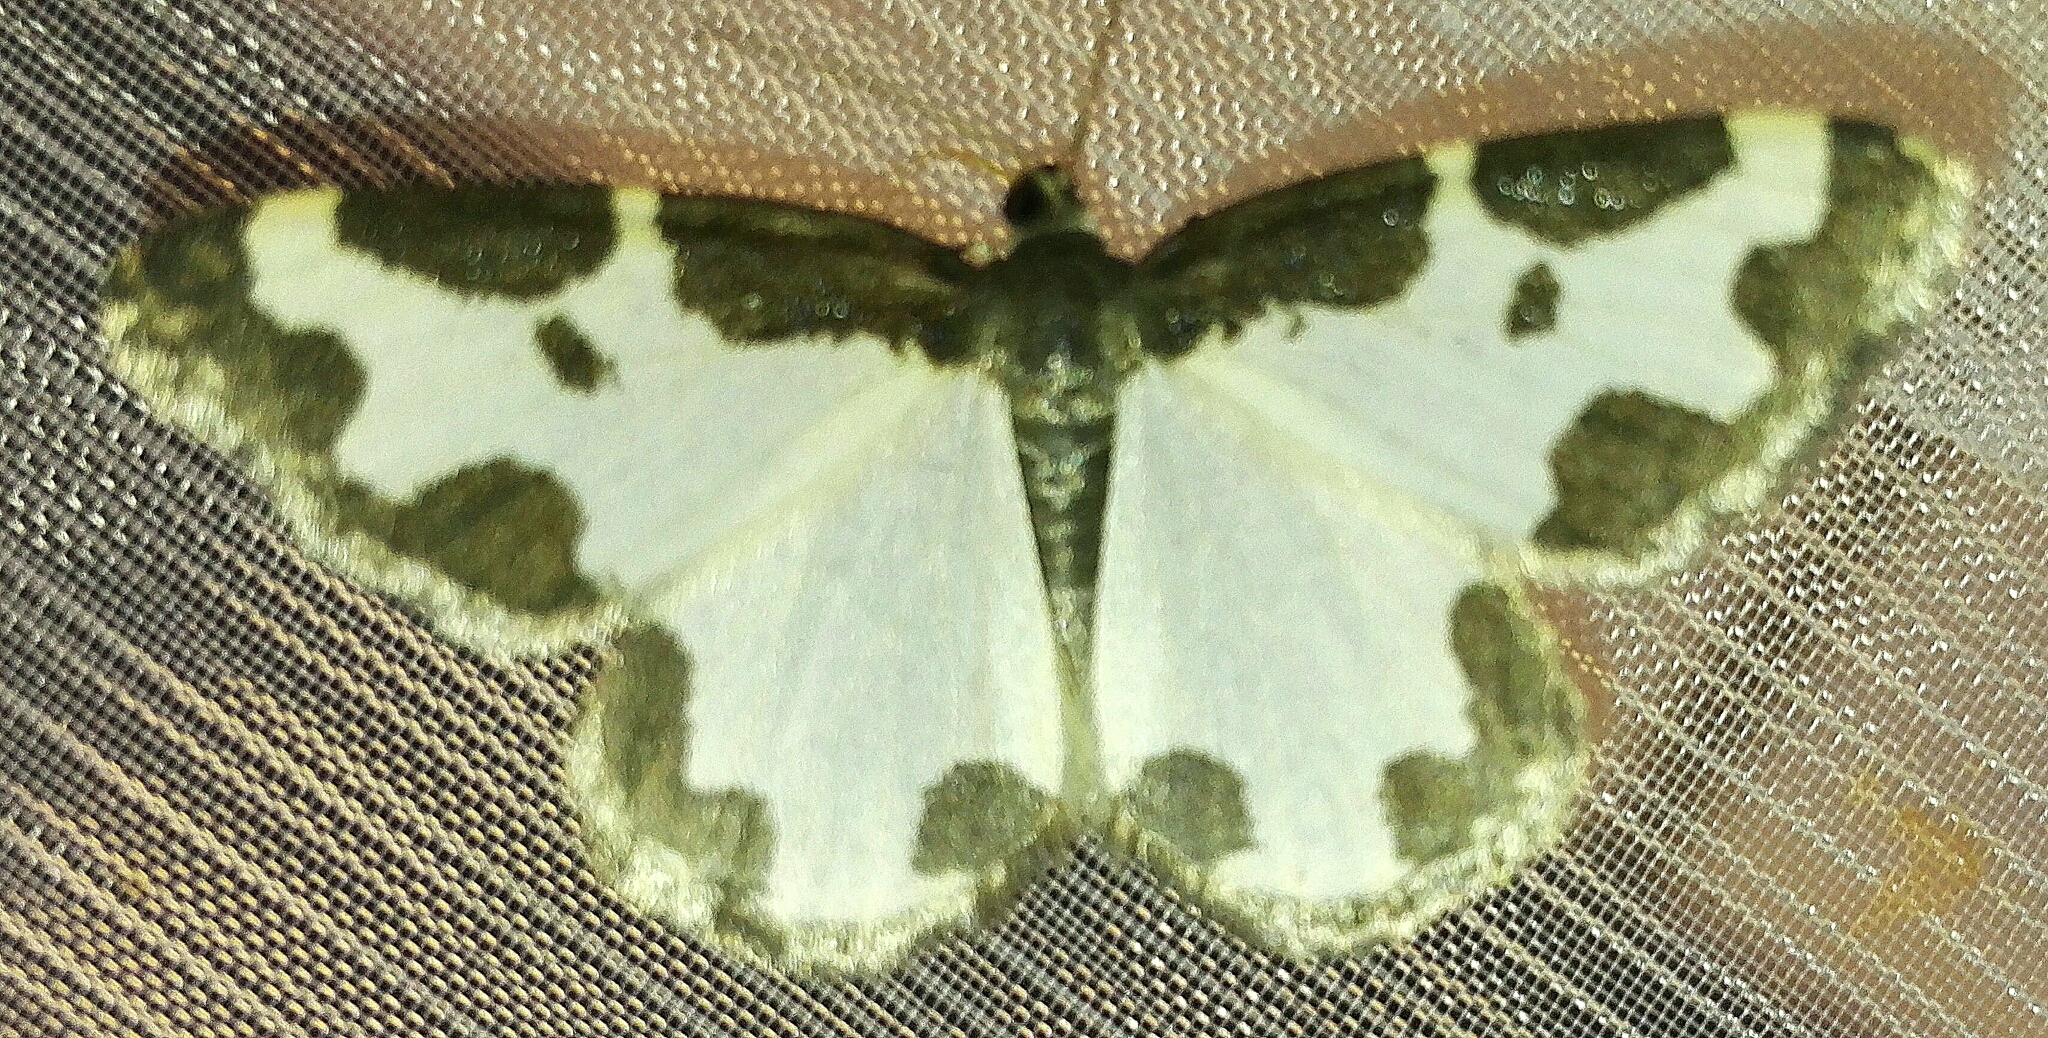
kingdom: Animalia
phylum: Arthropoda
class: Insecta
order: Lepidoptera
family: Geometridae
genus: Lomaspilis
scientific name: Lomaspilis marginata
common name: Clouded border
